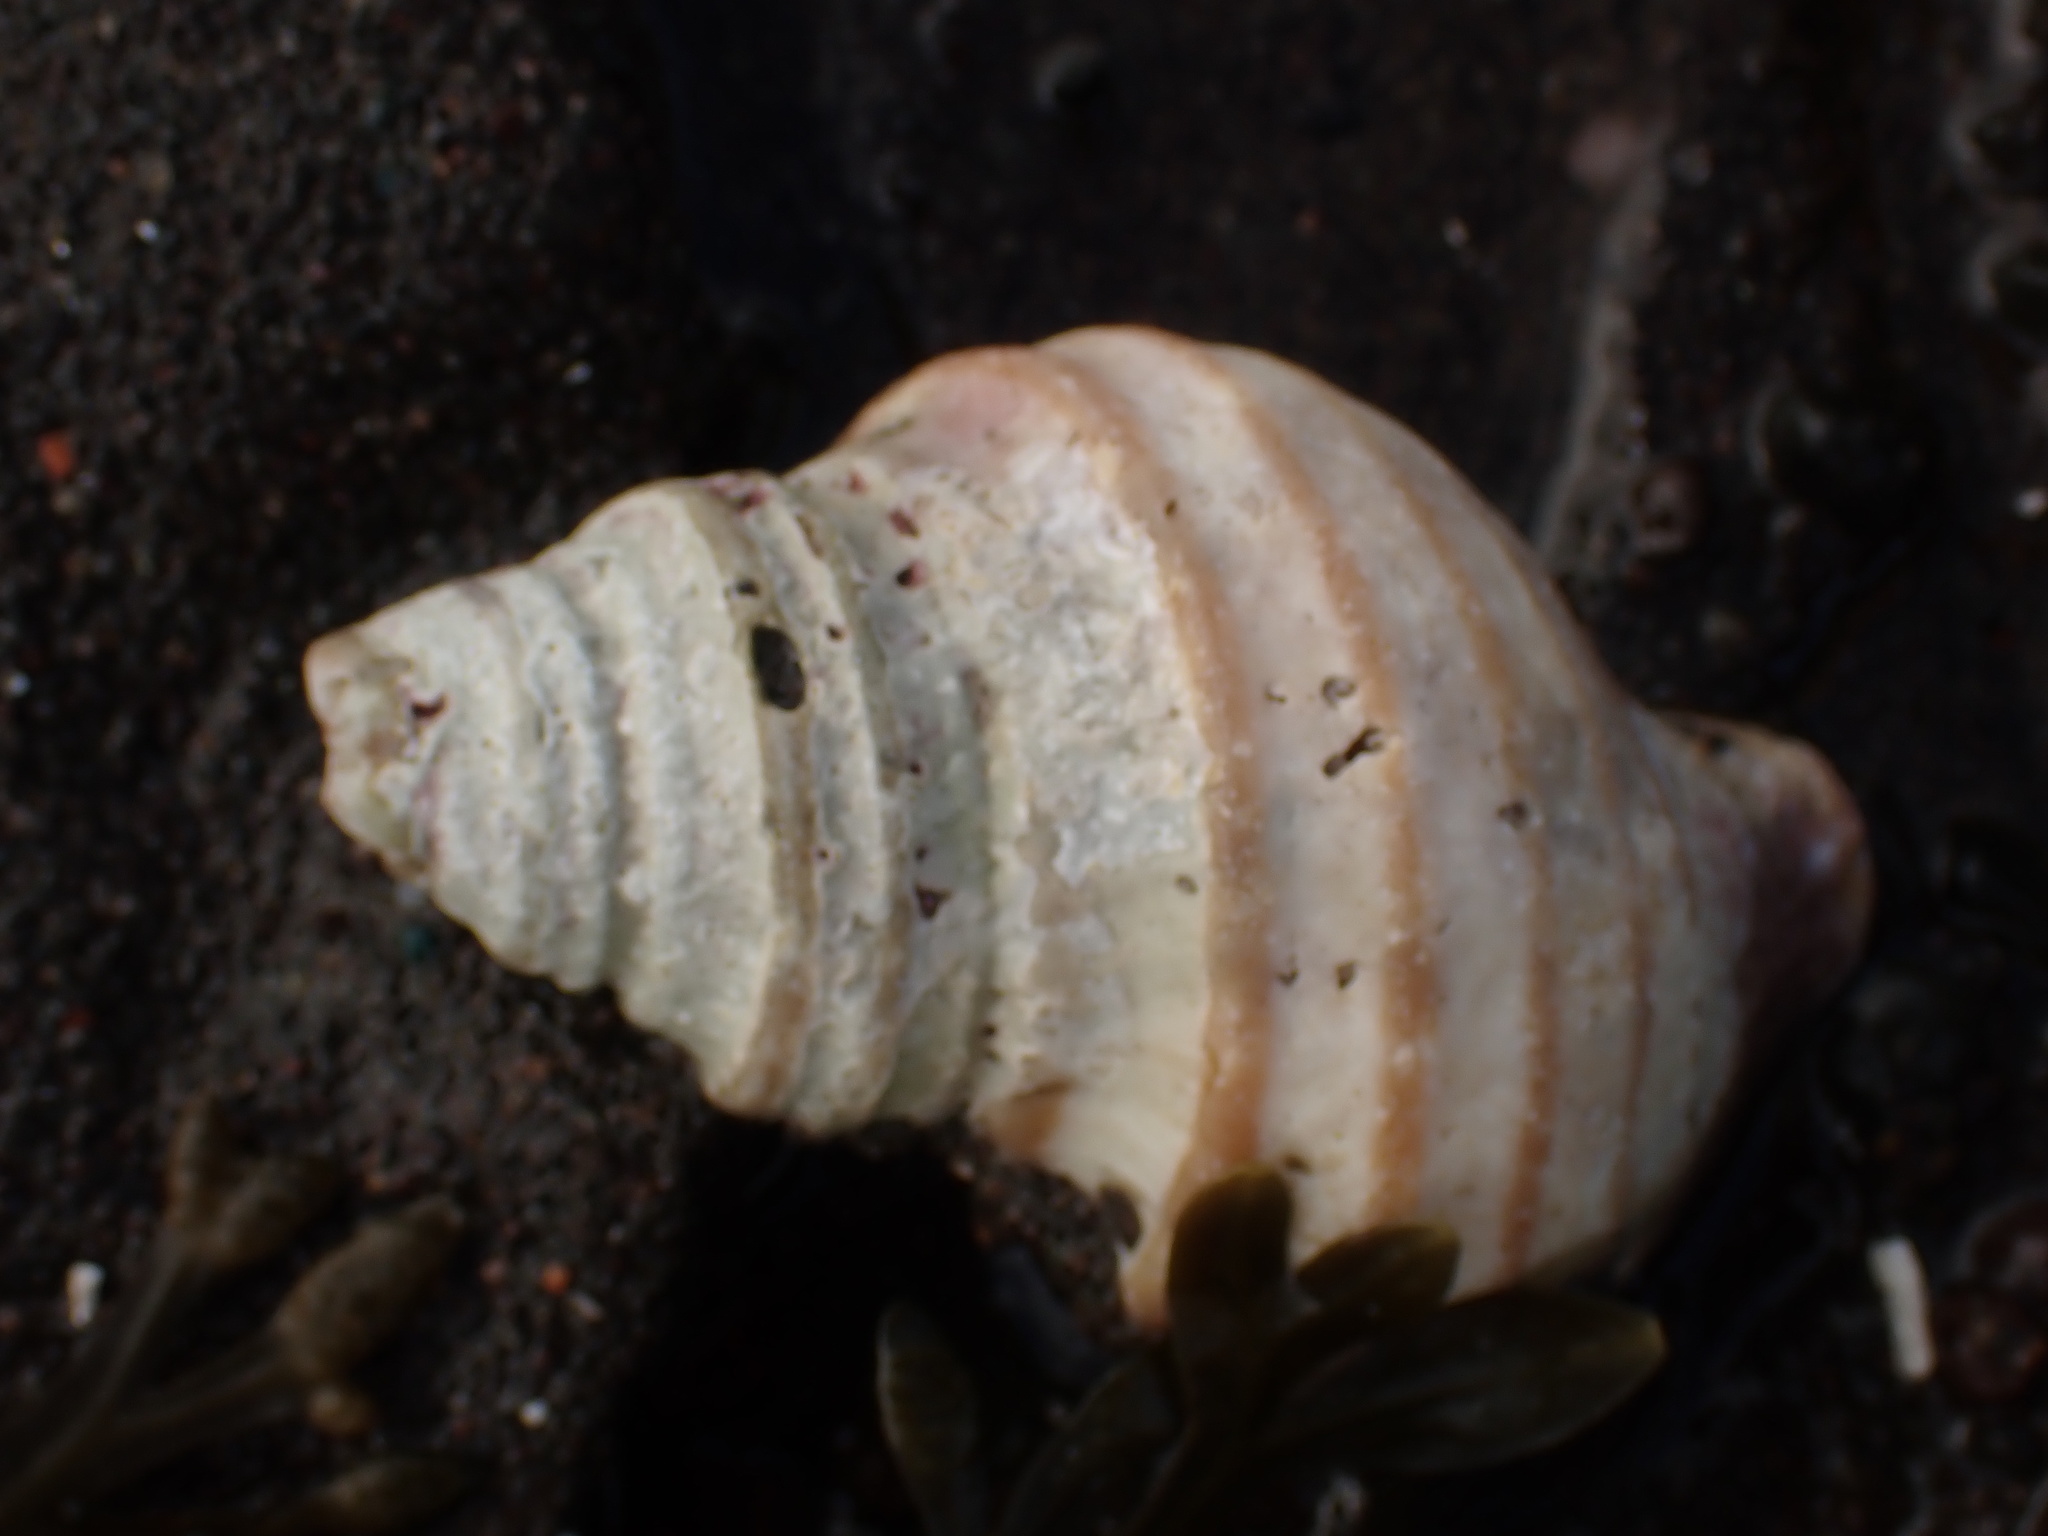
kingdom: Animalia
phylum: Mollusca
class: Gastropoda
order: Neogastropoda
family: Buccinidae
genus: Neptunea
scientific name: Neptunea decemcostata
